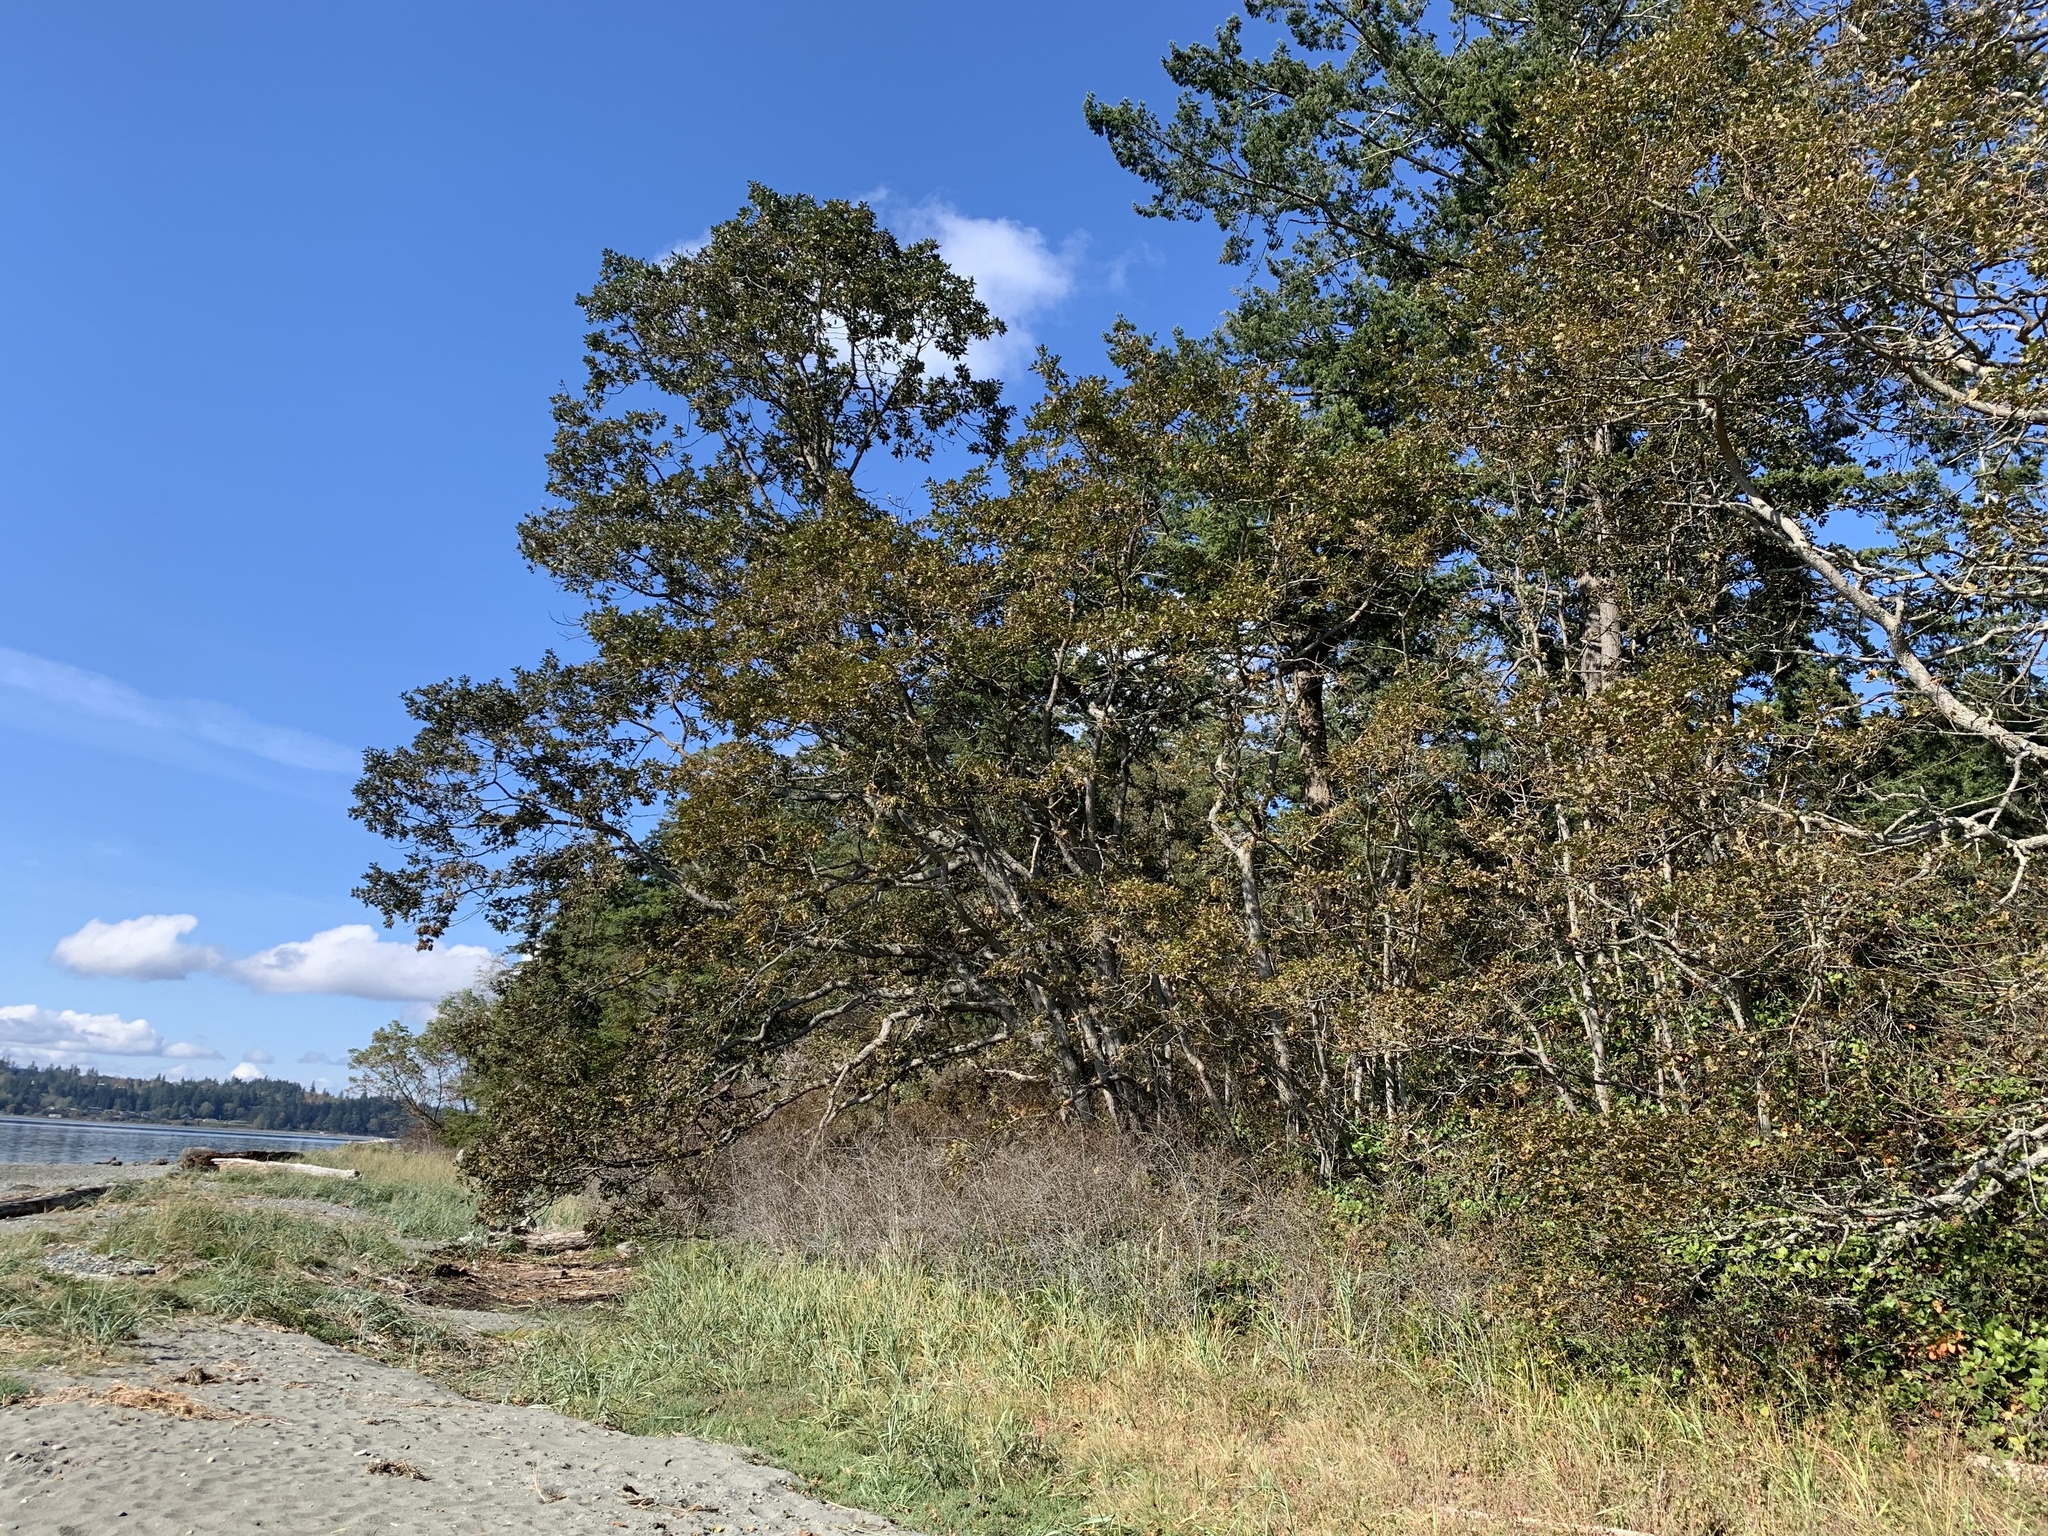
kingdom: Plantae
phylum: Tracheophyta
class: Magnoliopsida
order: Fagales
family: Fagaceae
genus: Quercus
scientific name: Quercus garryana
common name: Garry oak
